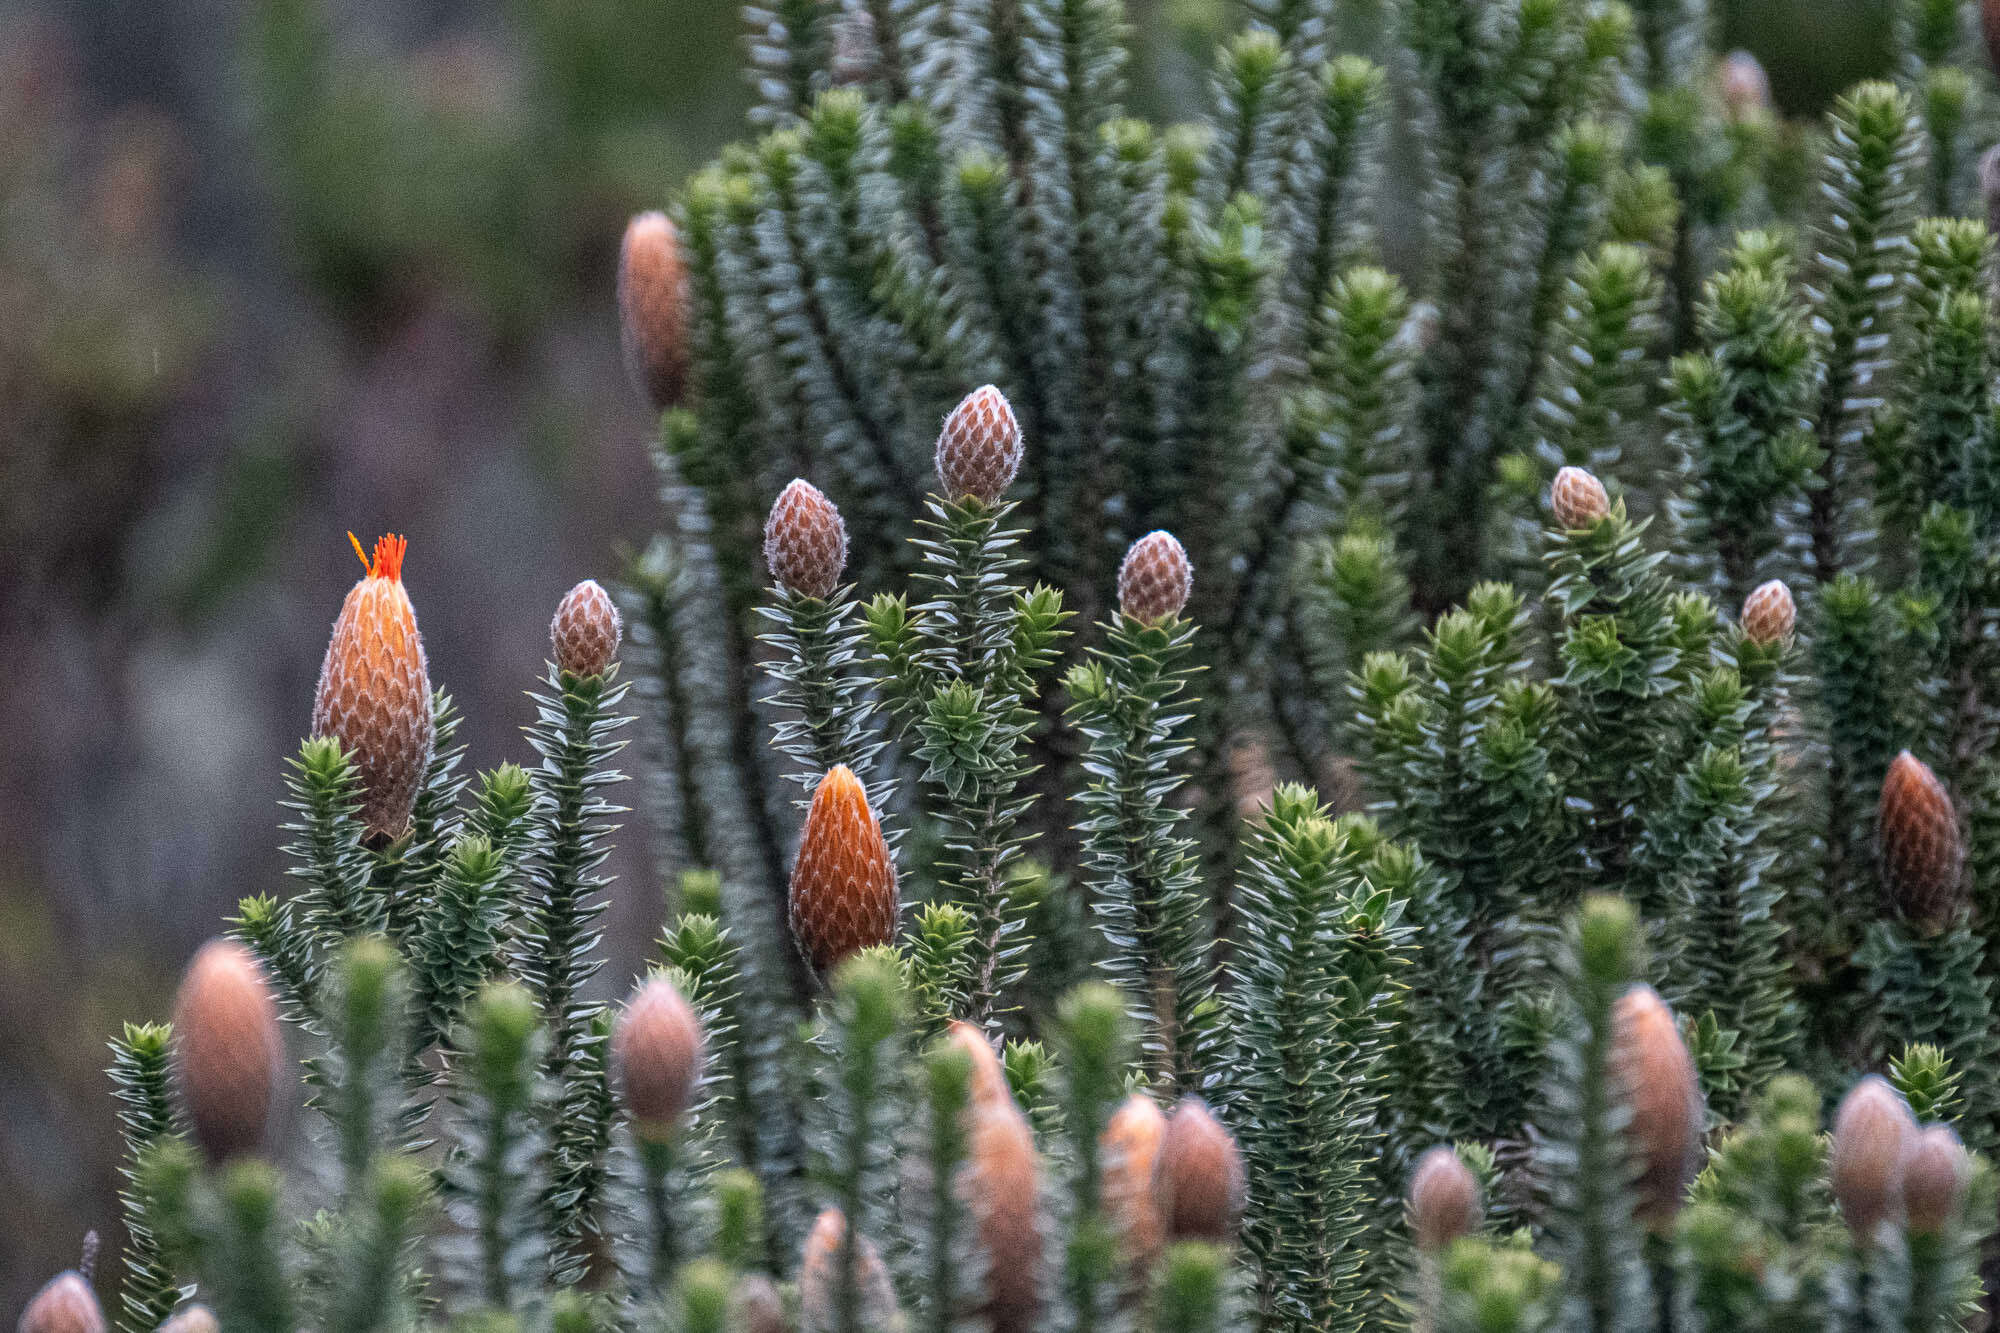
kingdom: Plantae
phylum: Tracheophyta
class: Magnoliopsida
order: Asterales
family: Asteraceae
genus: Chuquiraga
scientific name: Chuquiraga jussieui
